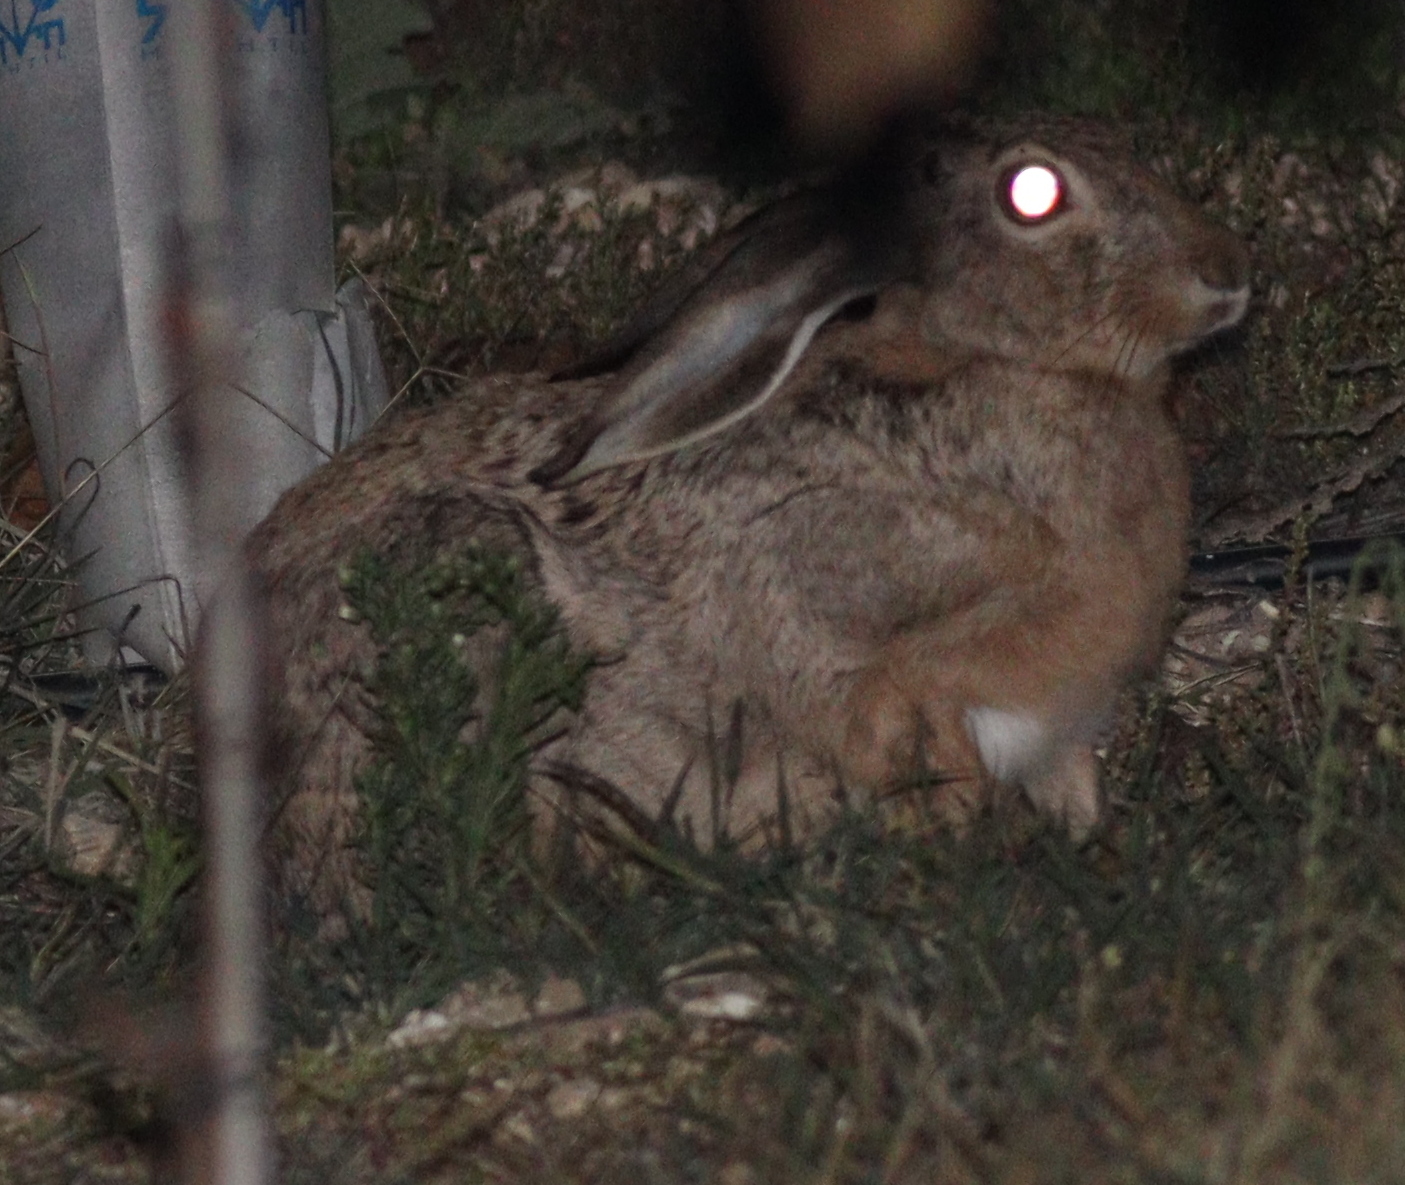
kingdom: Animalia
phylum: Chordata
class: Mammalia
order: Lagomorpha
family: Leporidae
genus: Lepus
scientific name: Lepus capensis
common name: Cape hare
